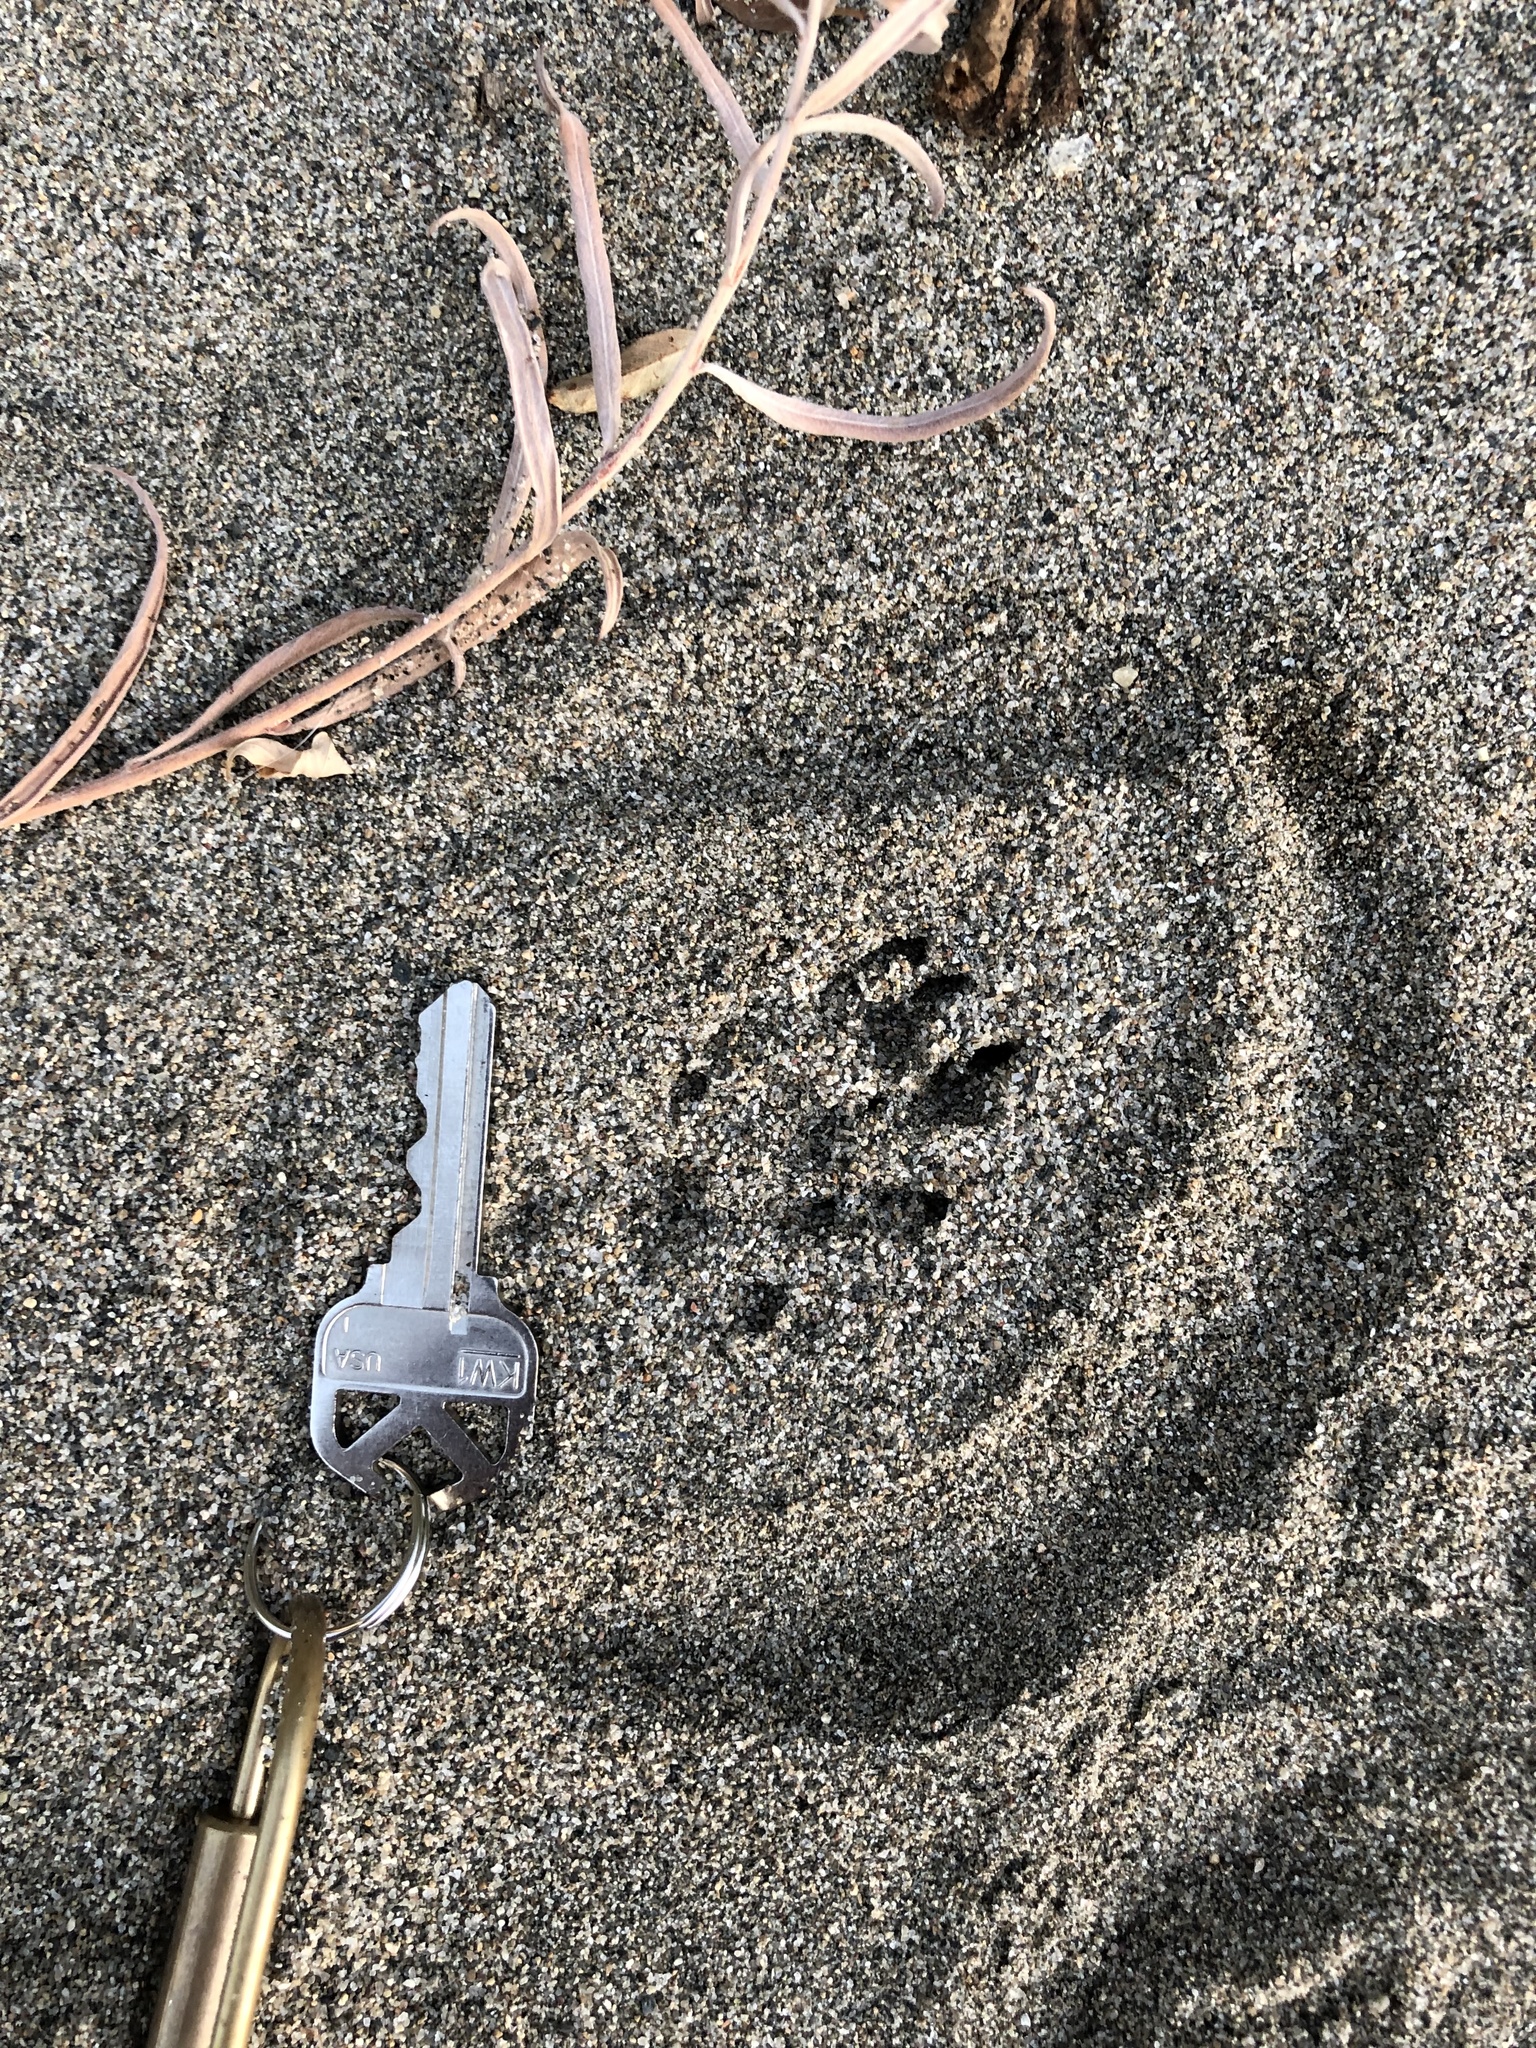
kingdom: Animalia
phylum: Chordata
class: Mammalia
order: Carnivora
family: Mustelidae
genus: Mustela
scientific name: Mustela
